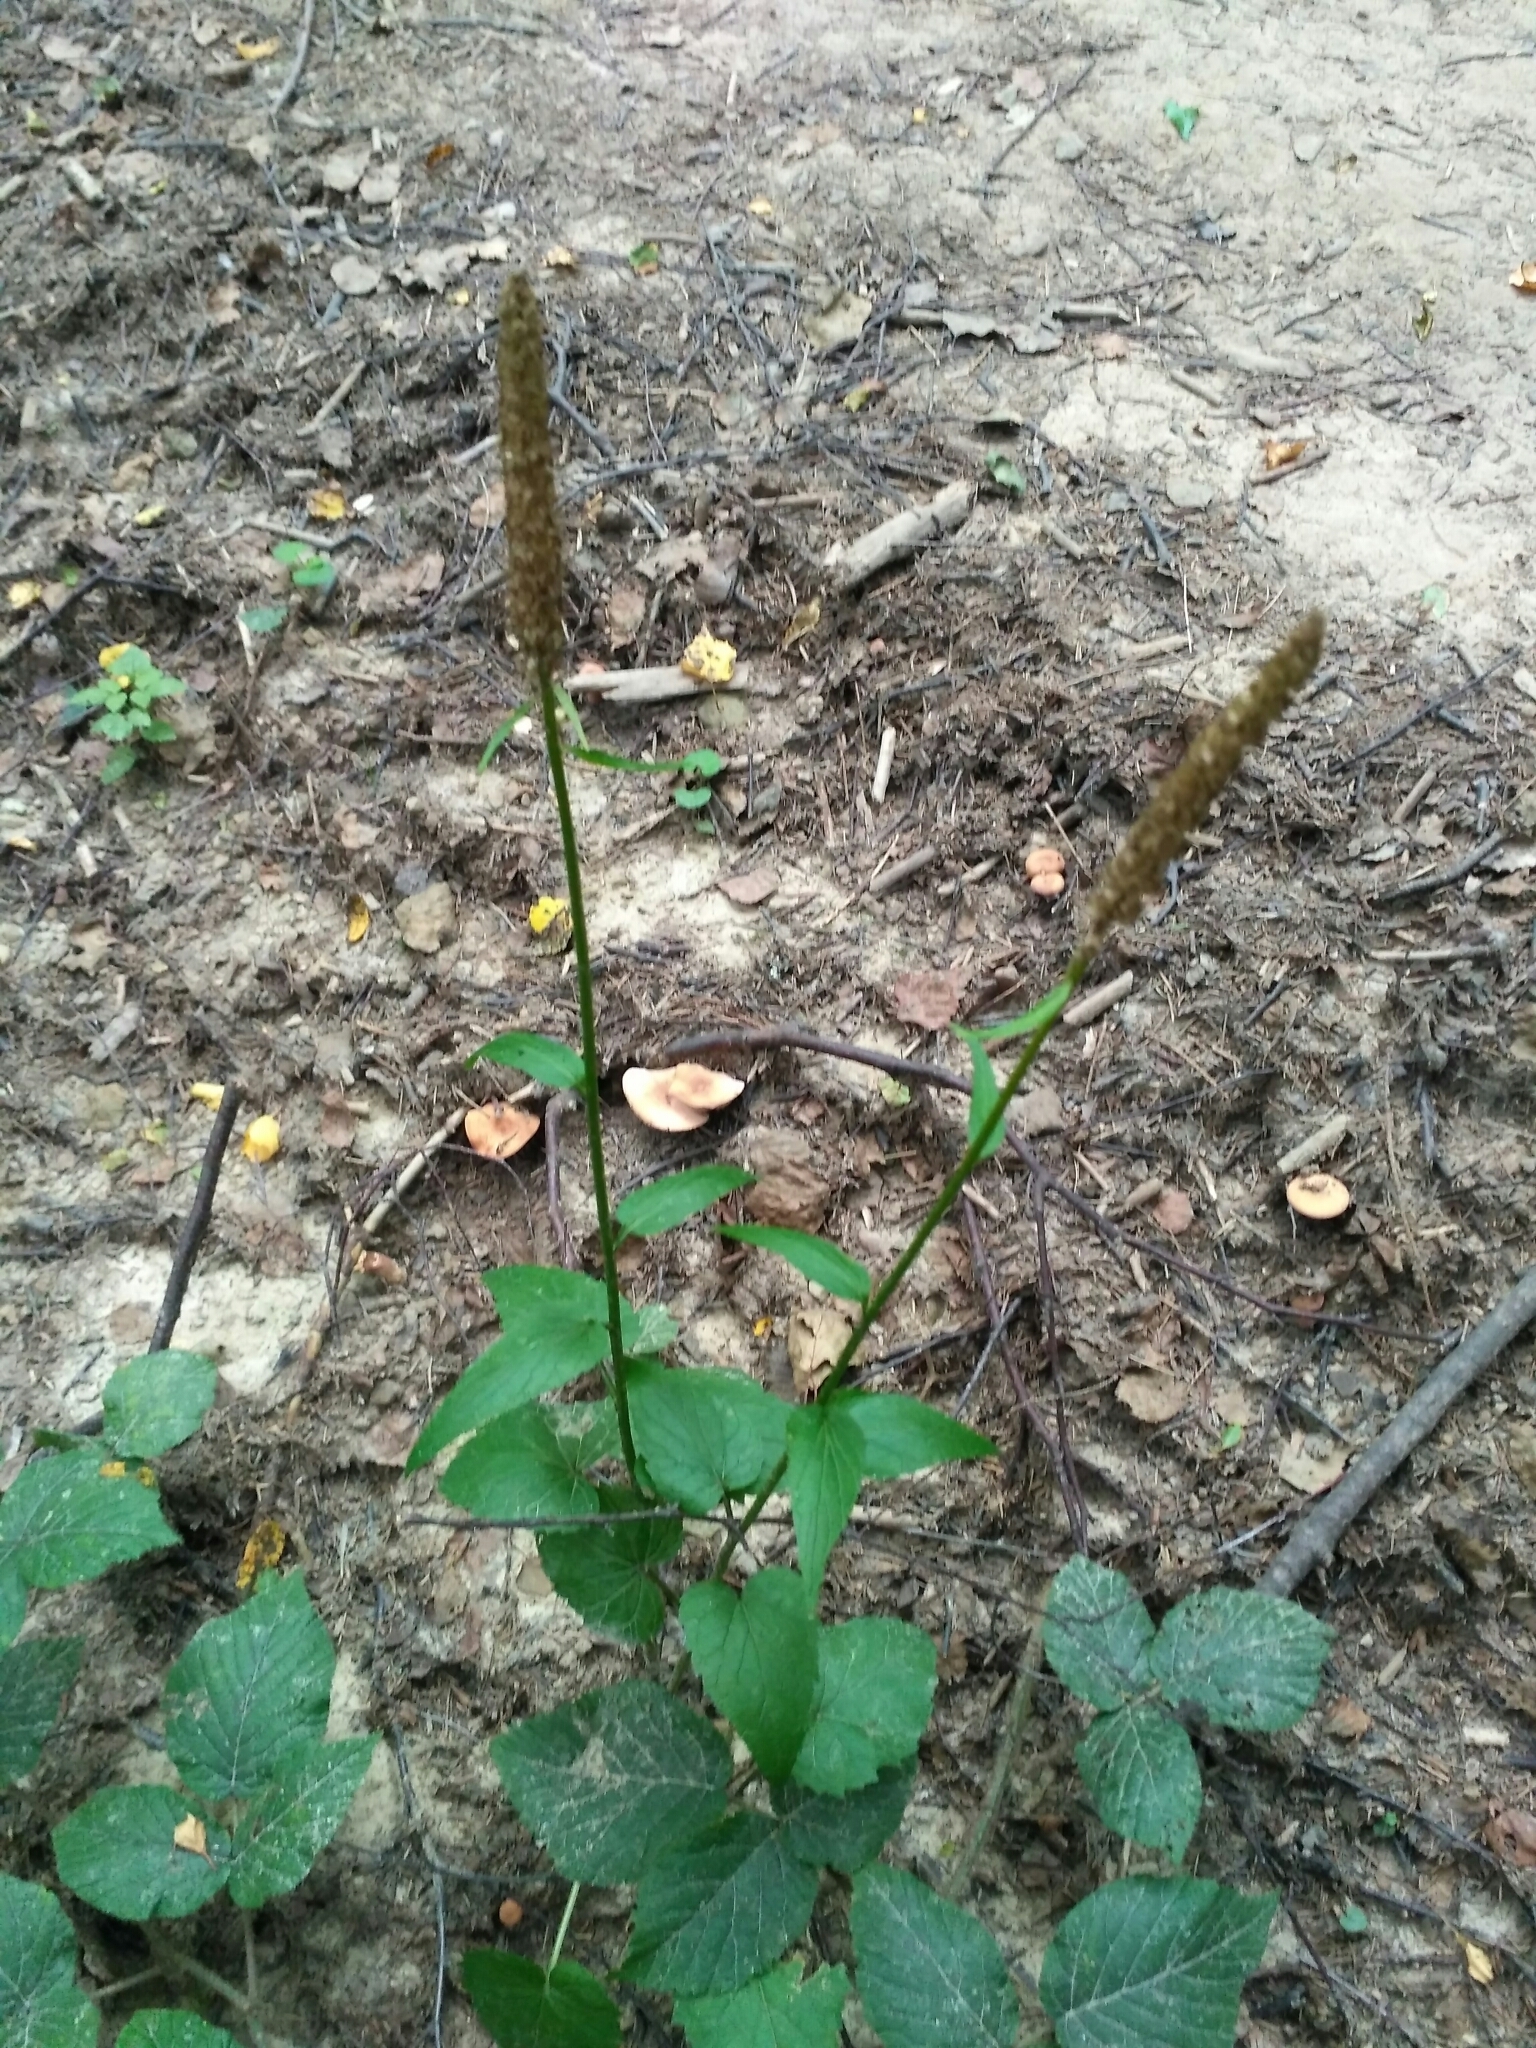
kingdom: Plantae
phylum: Tracheophyta
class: Magnoliopsida
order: Asterales
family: Campanulaceae
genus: Phyteuma
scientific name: Phyteuma spicatum
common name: Spiked rampion
